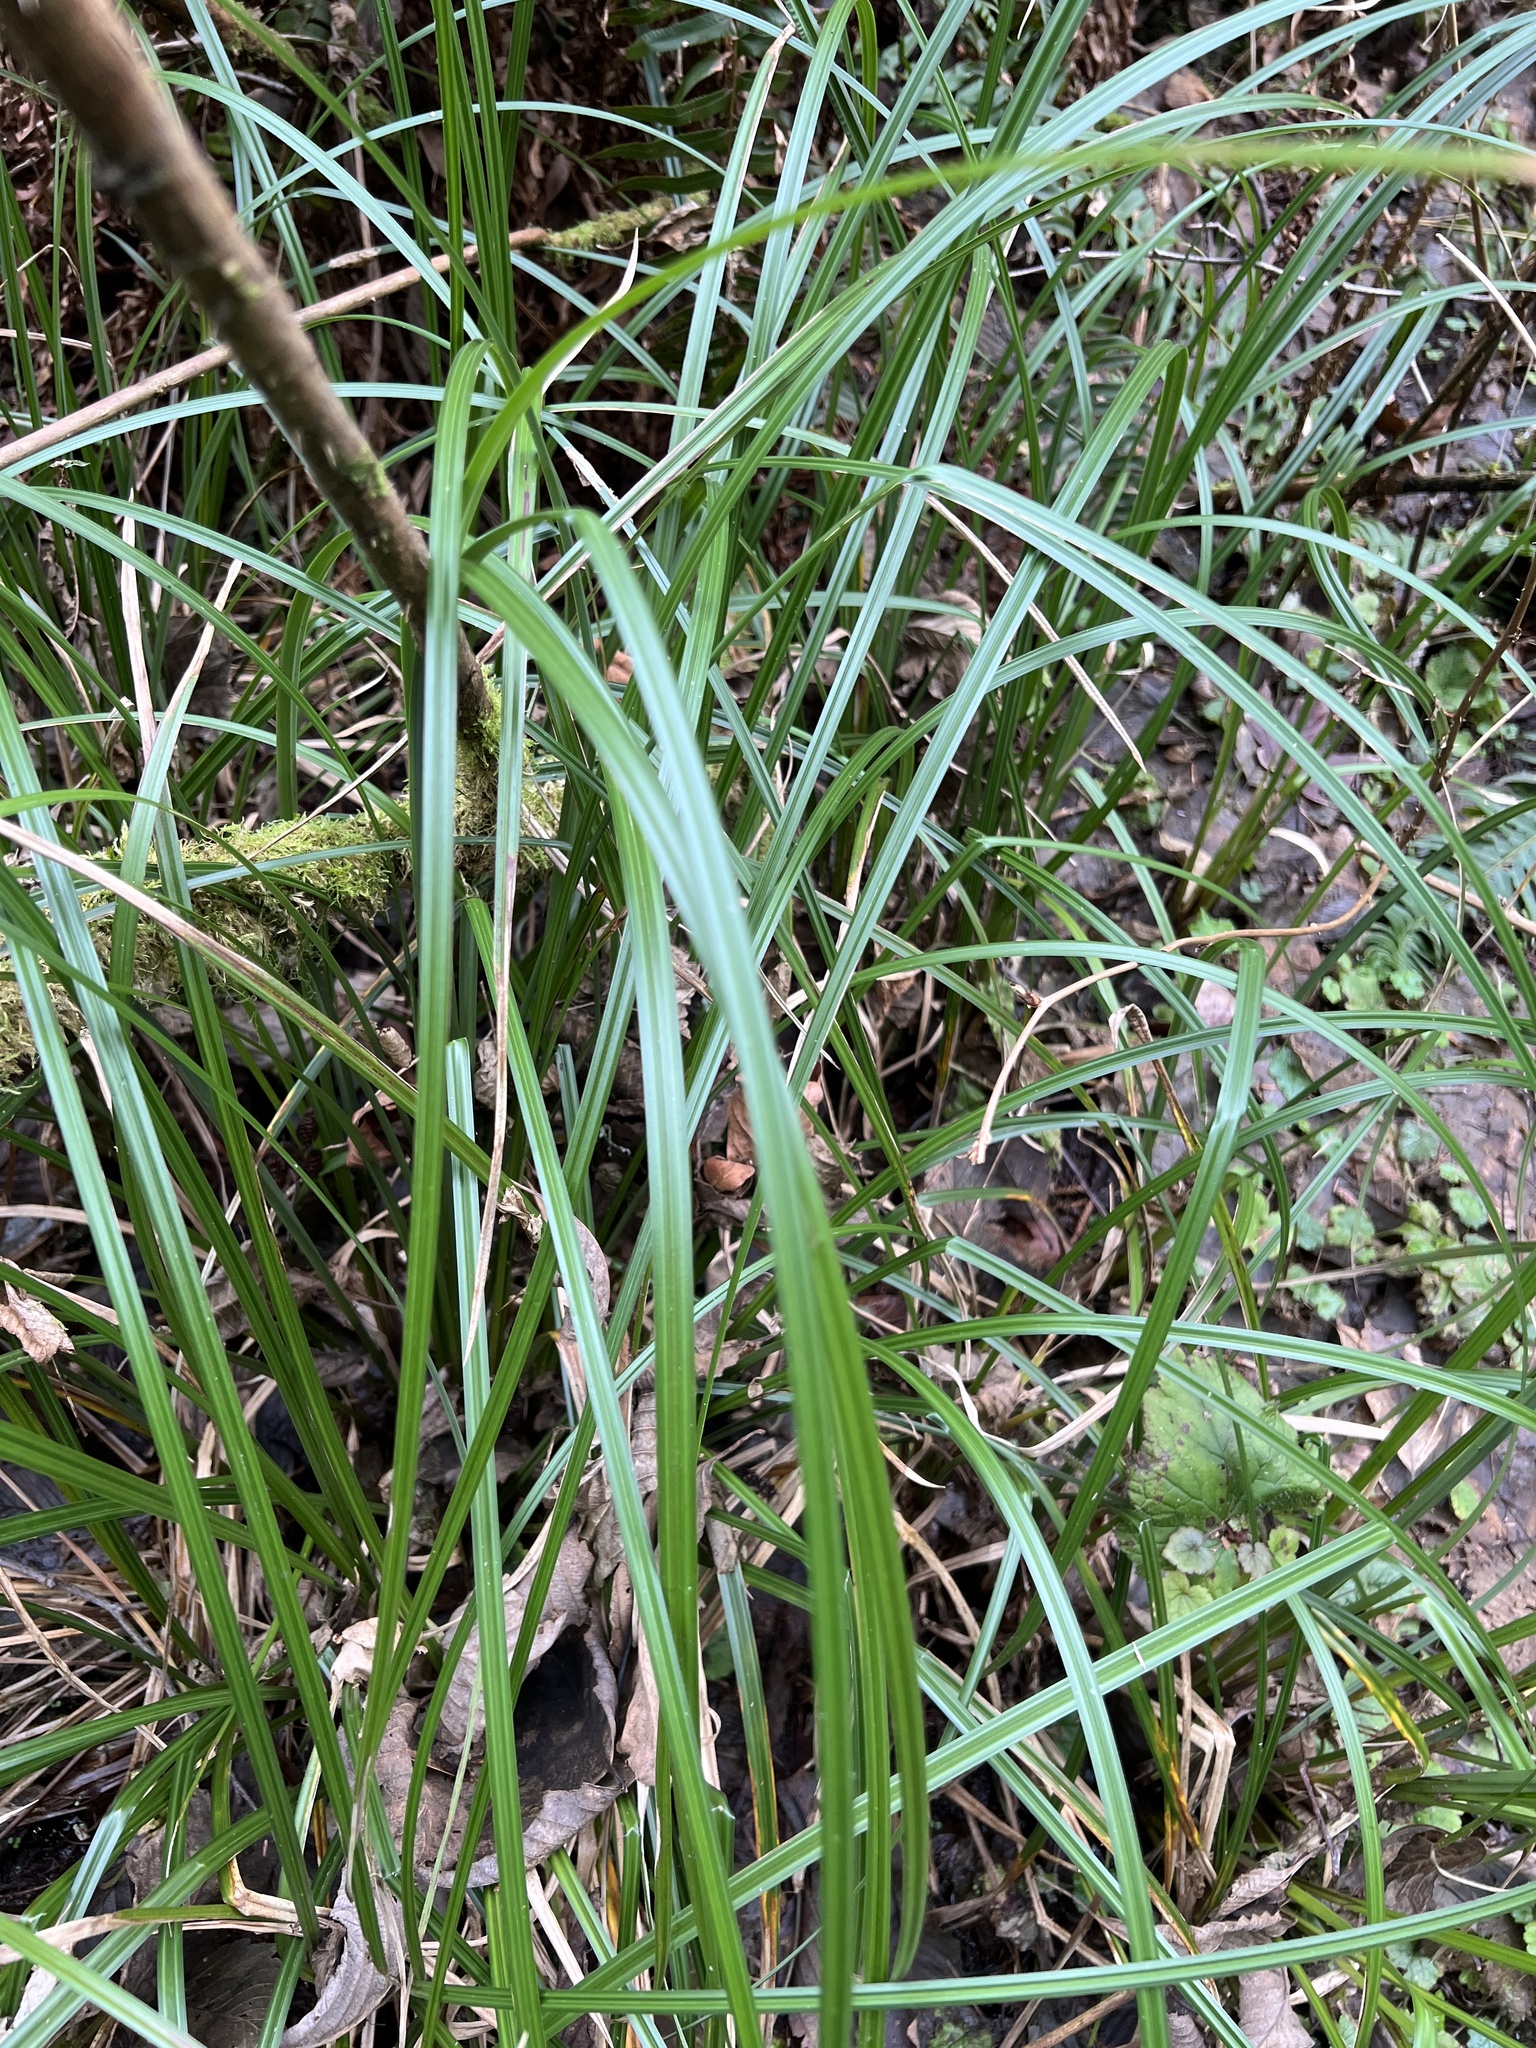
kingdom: Plantae
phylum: Tracheophyta
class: Liliopsida
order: Poales
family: Cyperaceae
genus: Carex
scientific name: Carex obnupta
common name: Slough sedge
